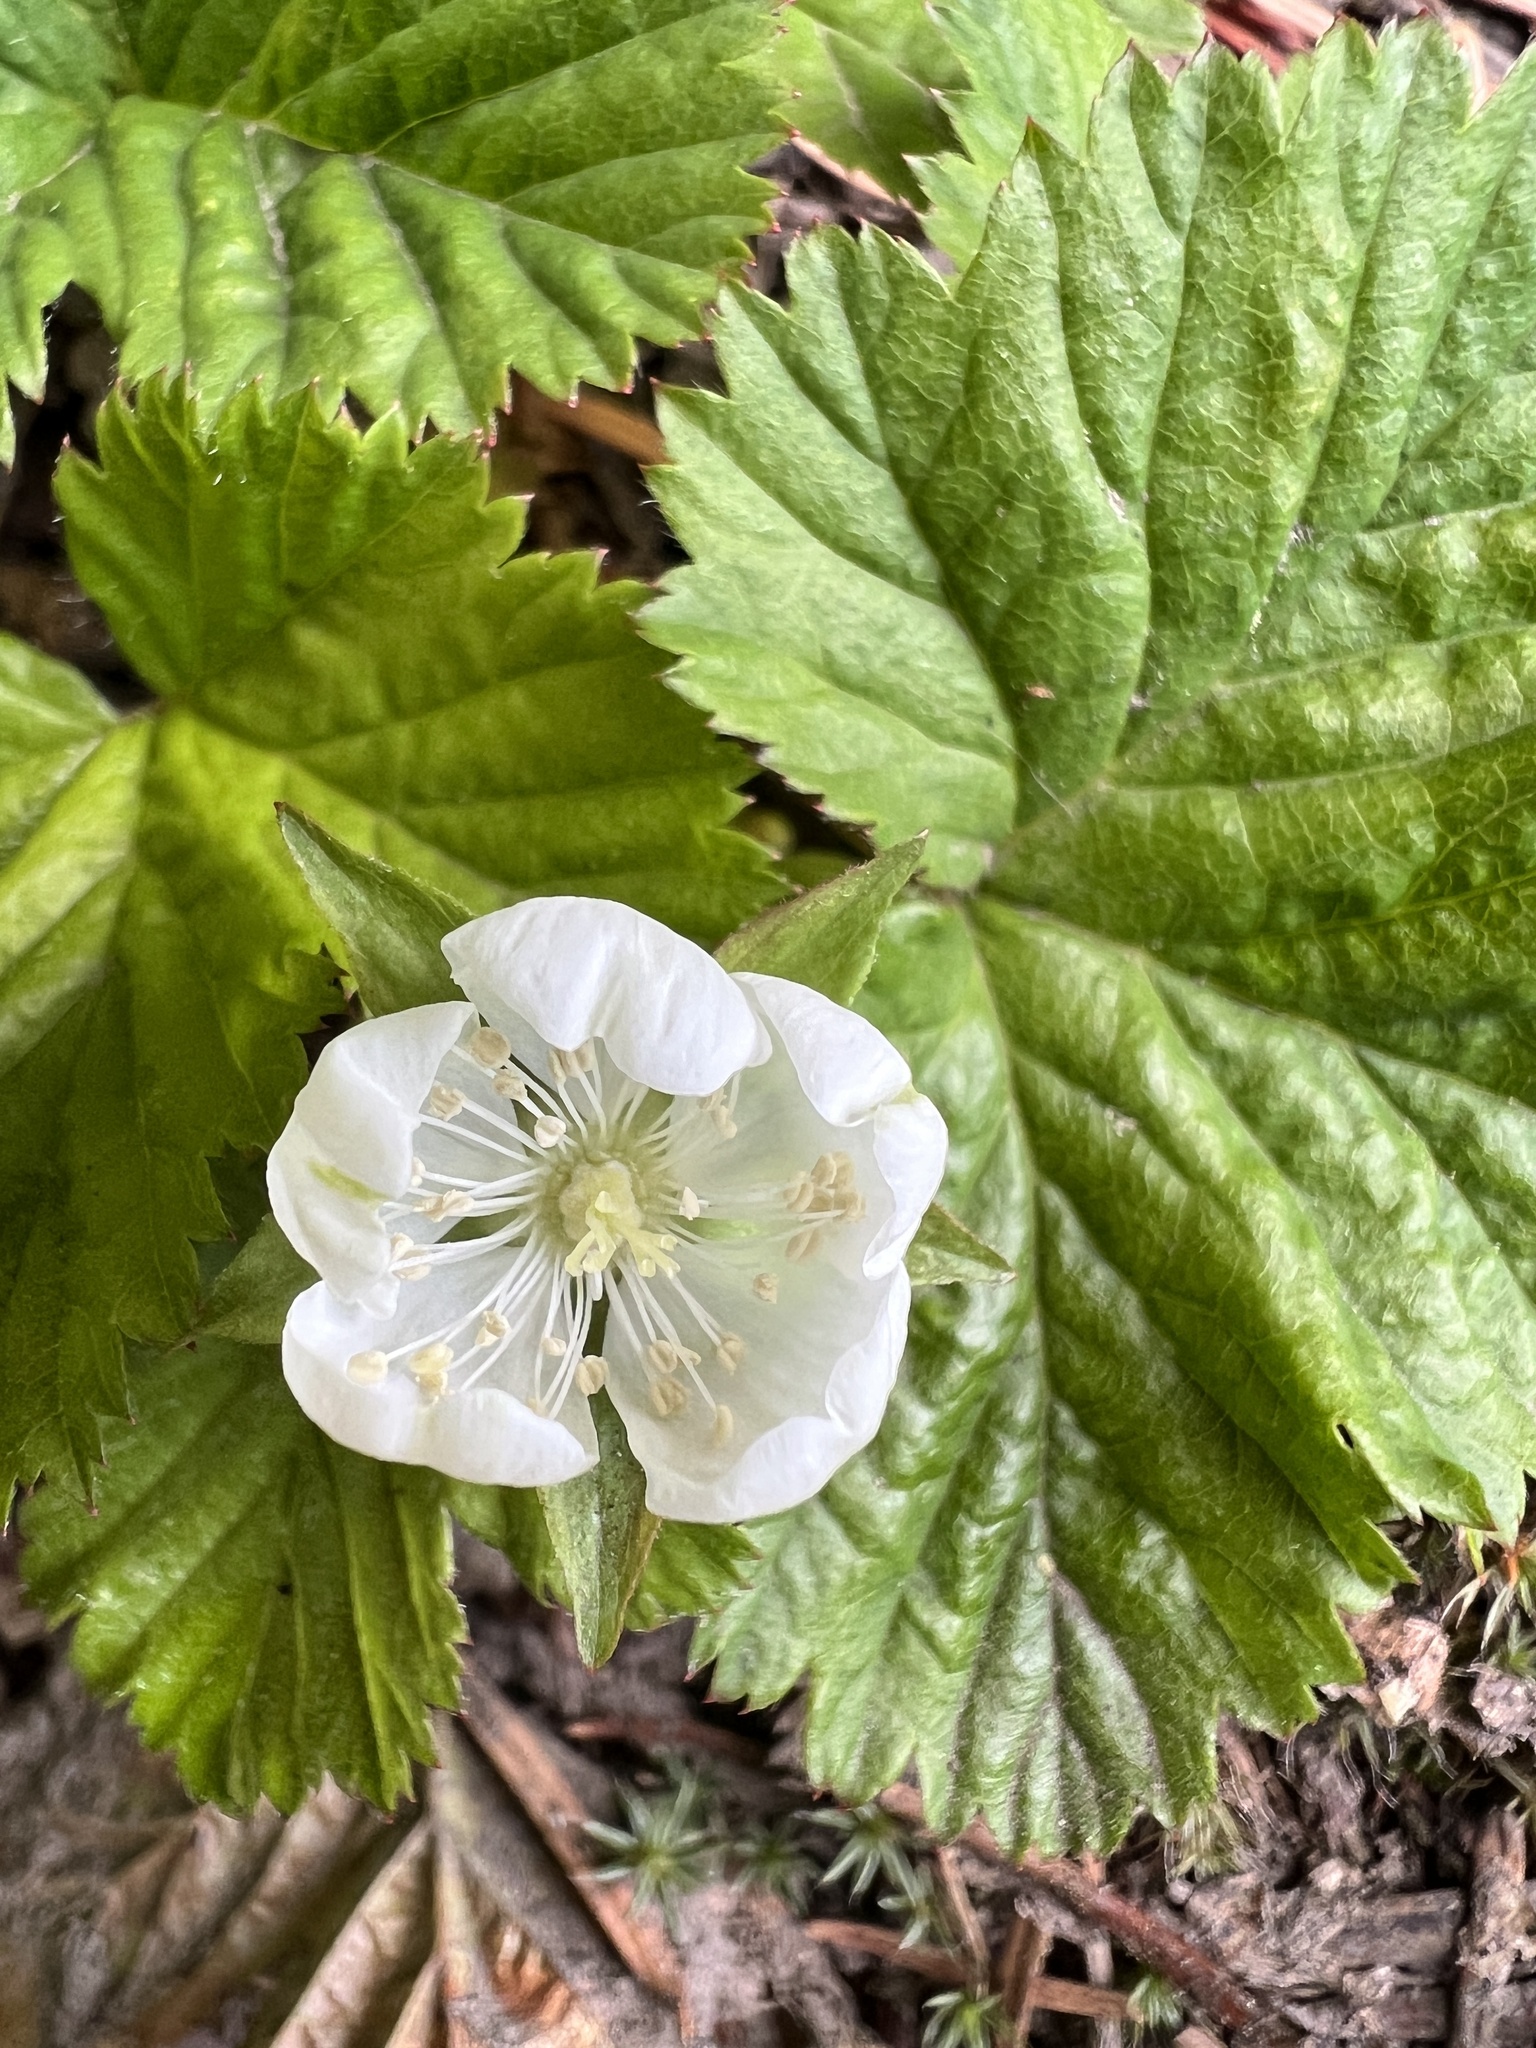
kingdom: Plantae
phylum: Tracheophyta
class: Magnoliopsida
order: Rosales
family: Rosaceae
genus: Rubus
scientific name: Rubus lasiococcus
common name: Dwarf bramble
